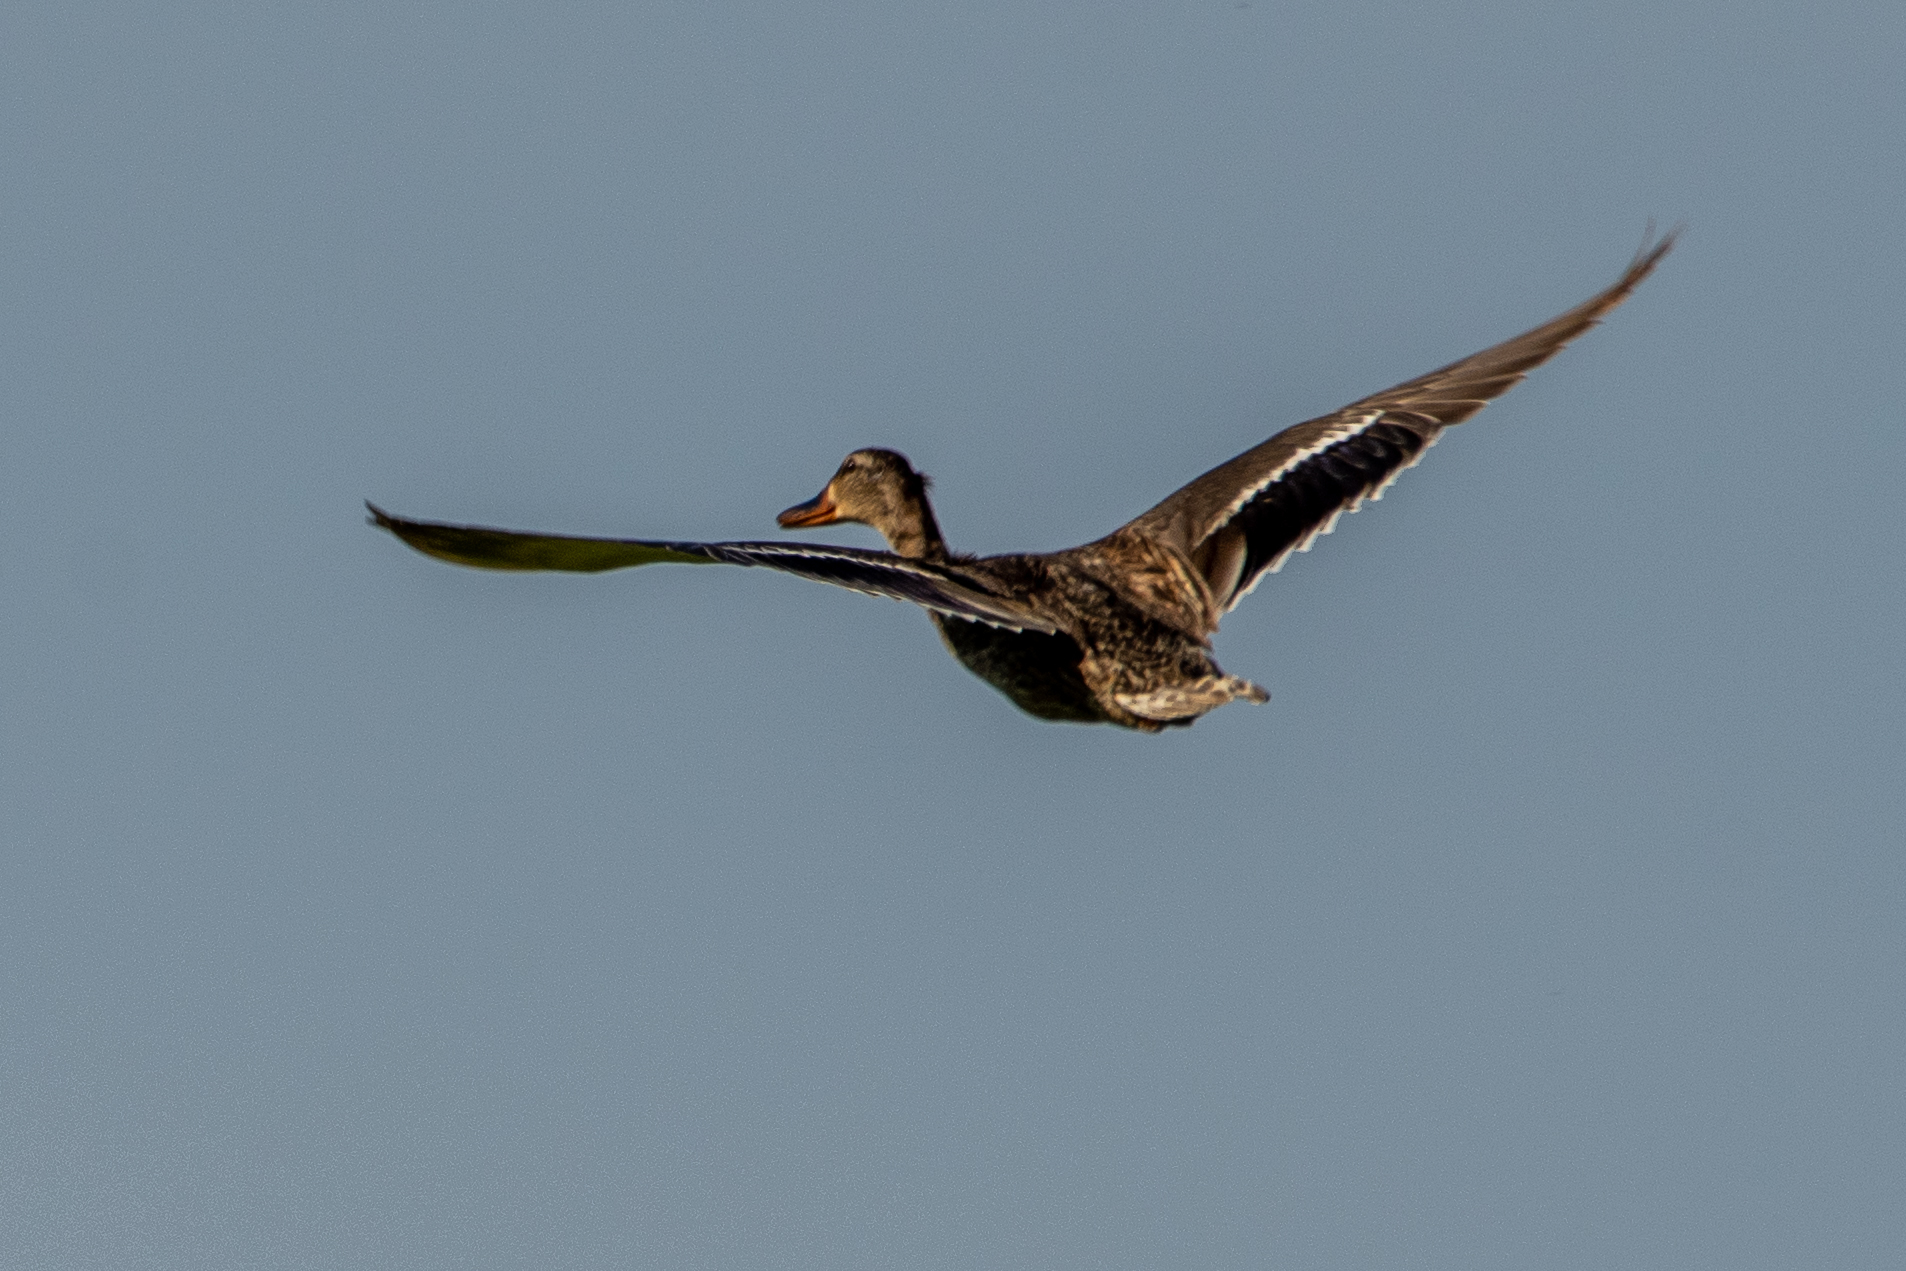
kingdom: Animalia
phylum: Chordata
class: Aves
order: Anseriformes
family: Anatidae
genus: Anas
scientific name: Anas platyrhynchos
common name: Mallard
